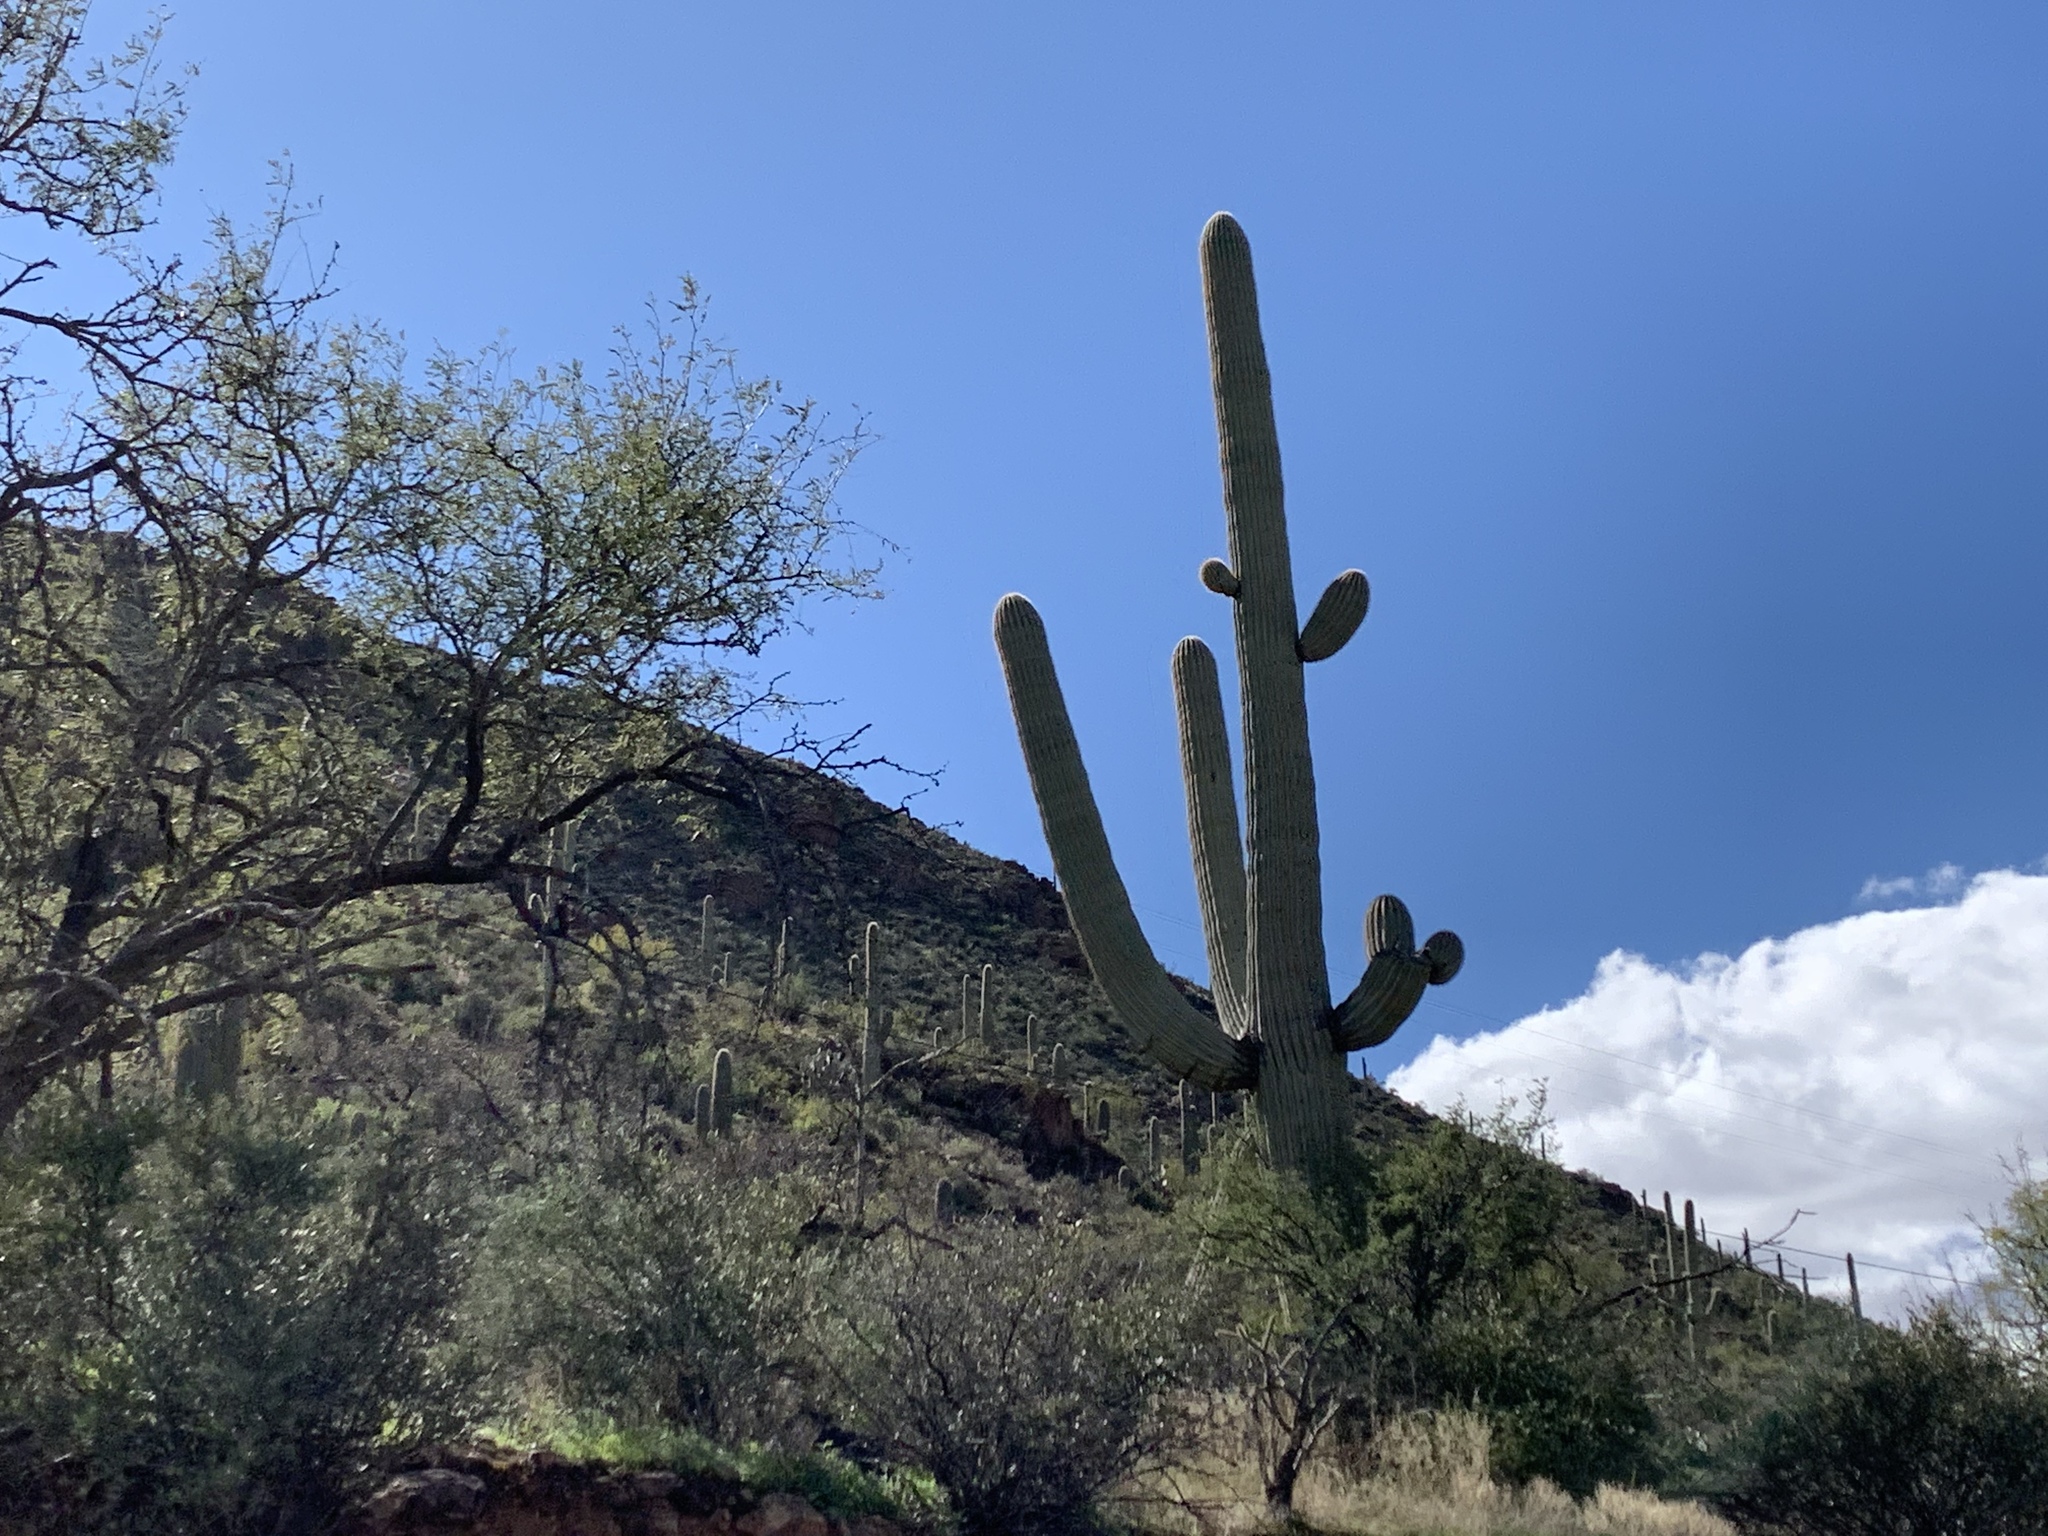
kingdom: Plantae
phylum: Tracheophyta
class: Magnoliopsida
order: Caryophyllales
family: Cactaceae
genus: Carnegiea
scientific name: Carnegiea gigantea
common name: Saguaro
